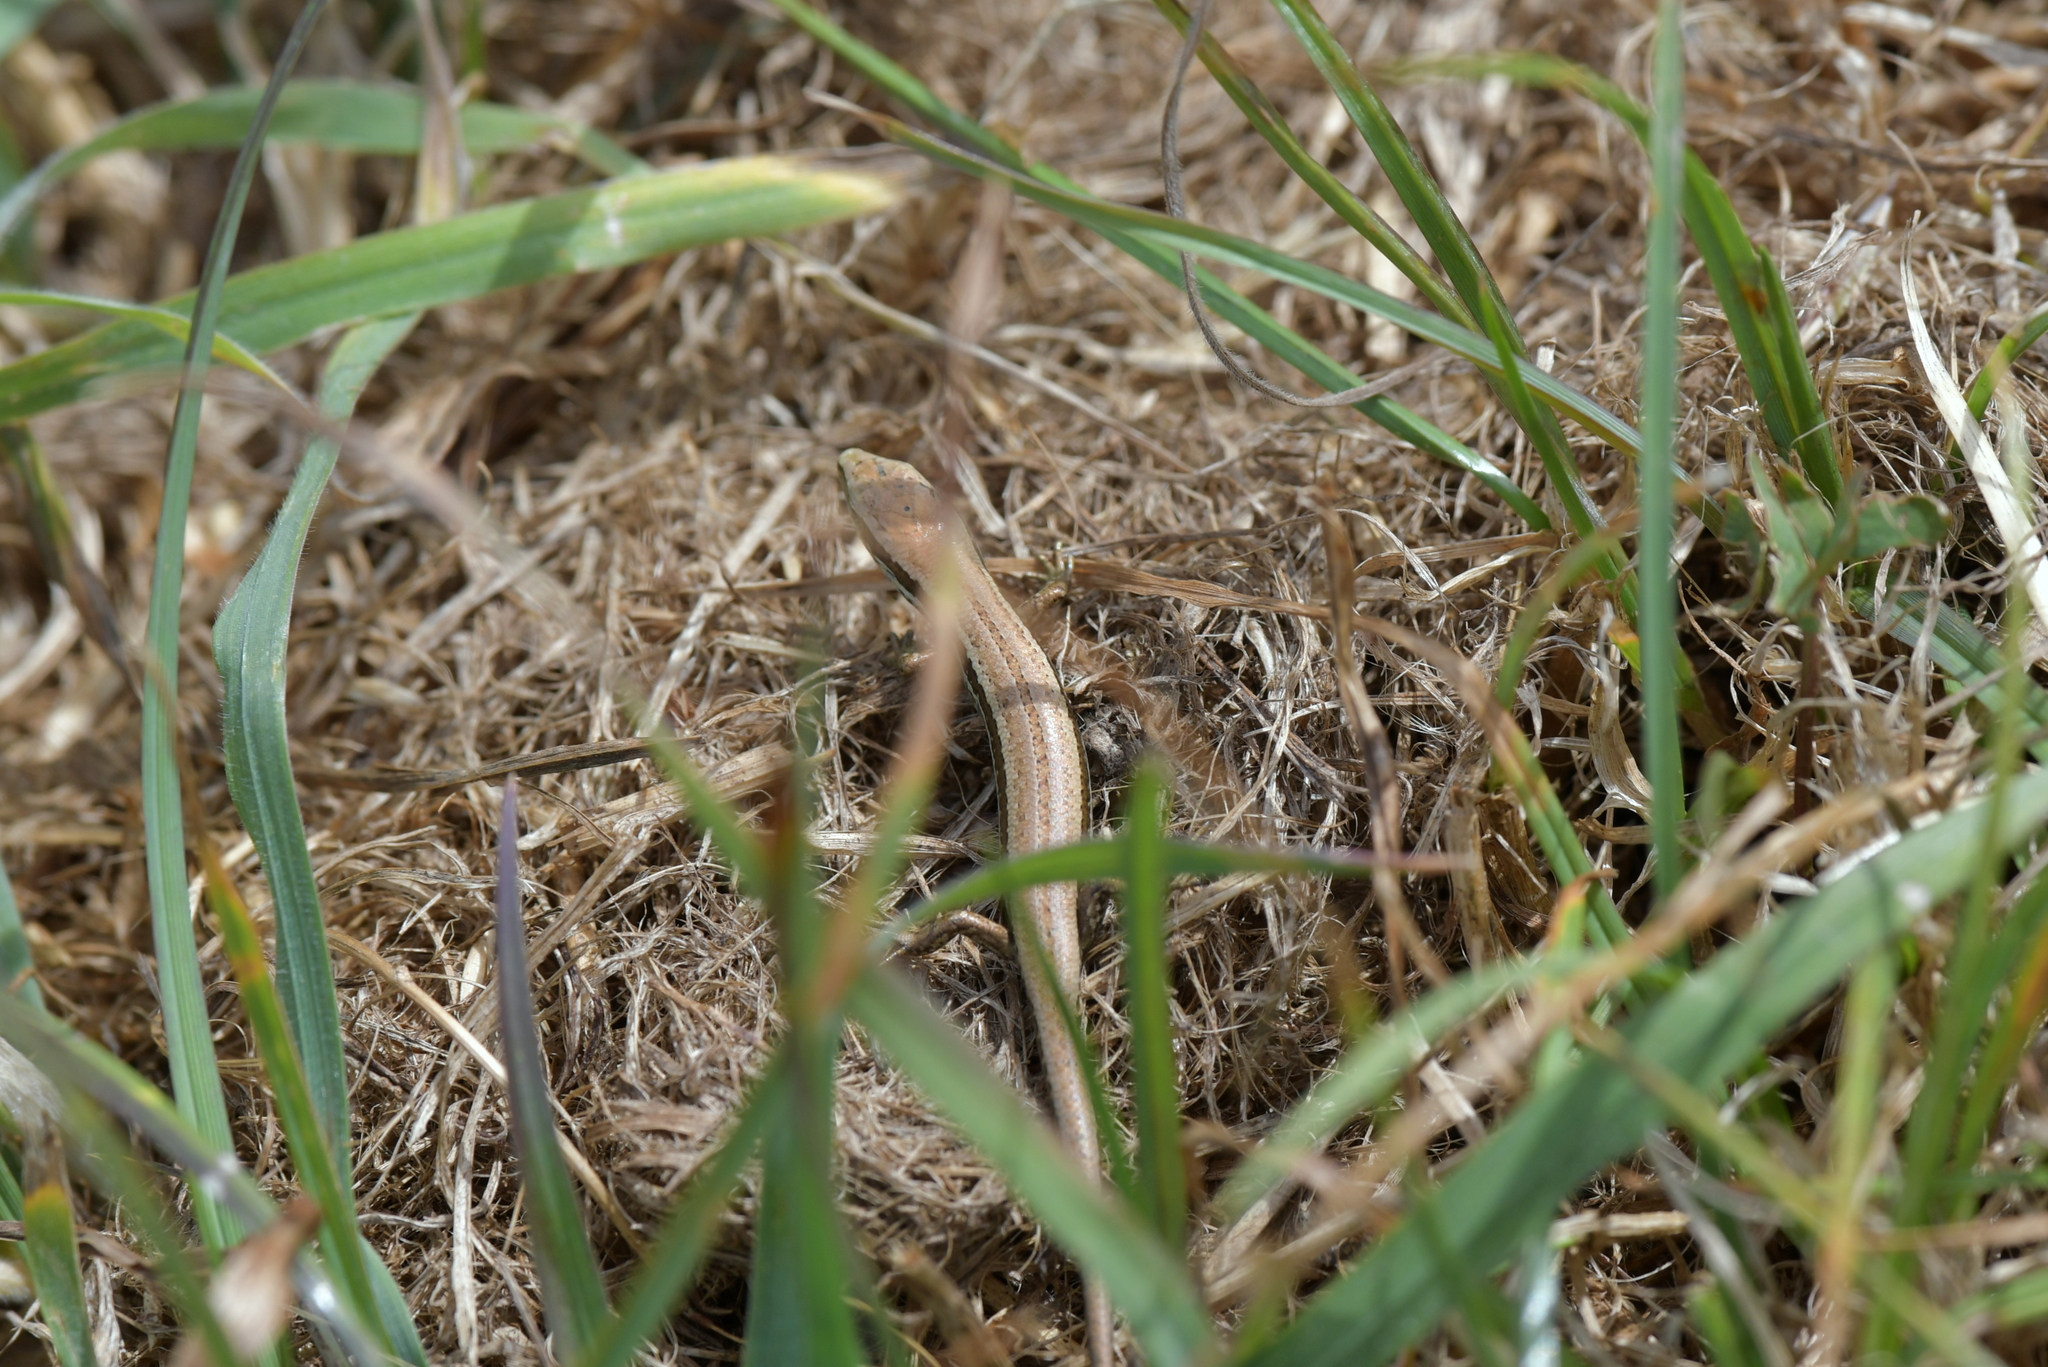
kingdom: Animalia
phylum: Chordata
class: Squamata
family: Scincidae
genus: Oligosoma
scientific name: Oligosoma polychroma
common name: Common new zealand skink
